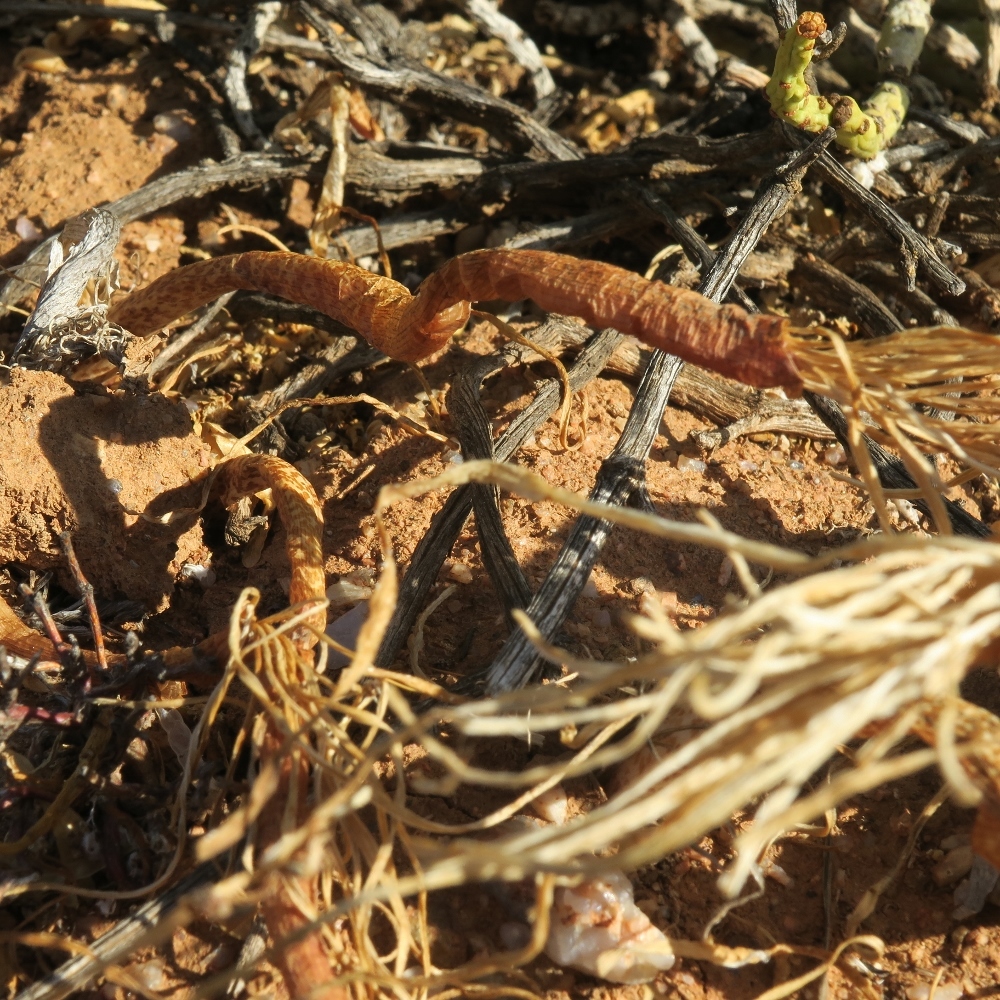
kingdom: Plantae
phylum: Tracheophyta
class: Liliopsida
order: Asparagales
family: Amaryllidaceae
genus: Gethyllis
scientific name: Gethyllis britteniana
